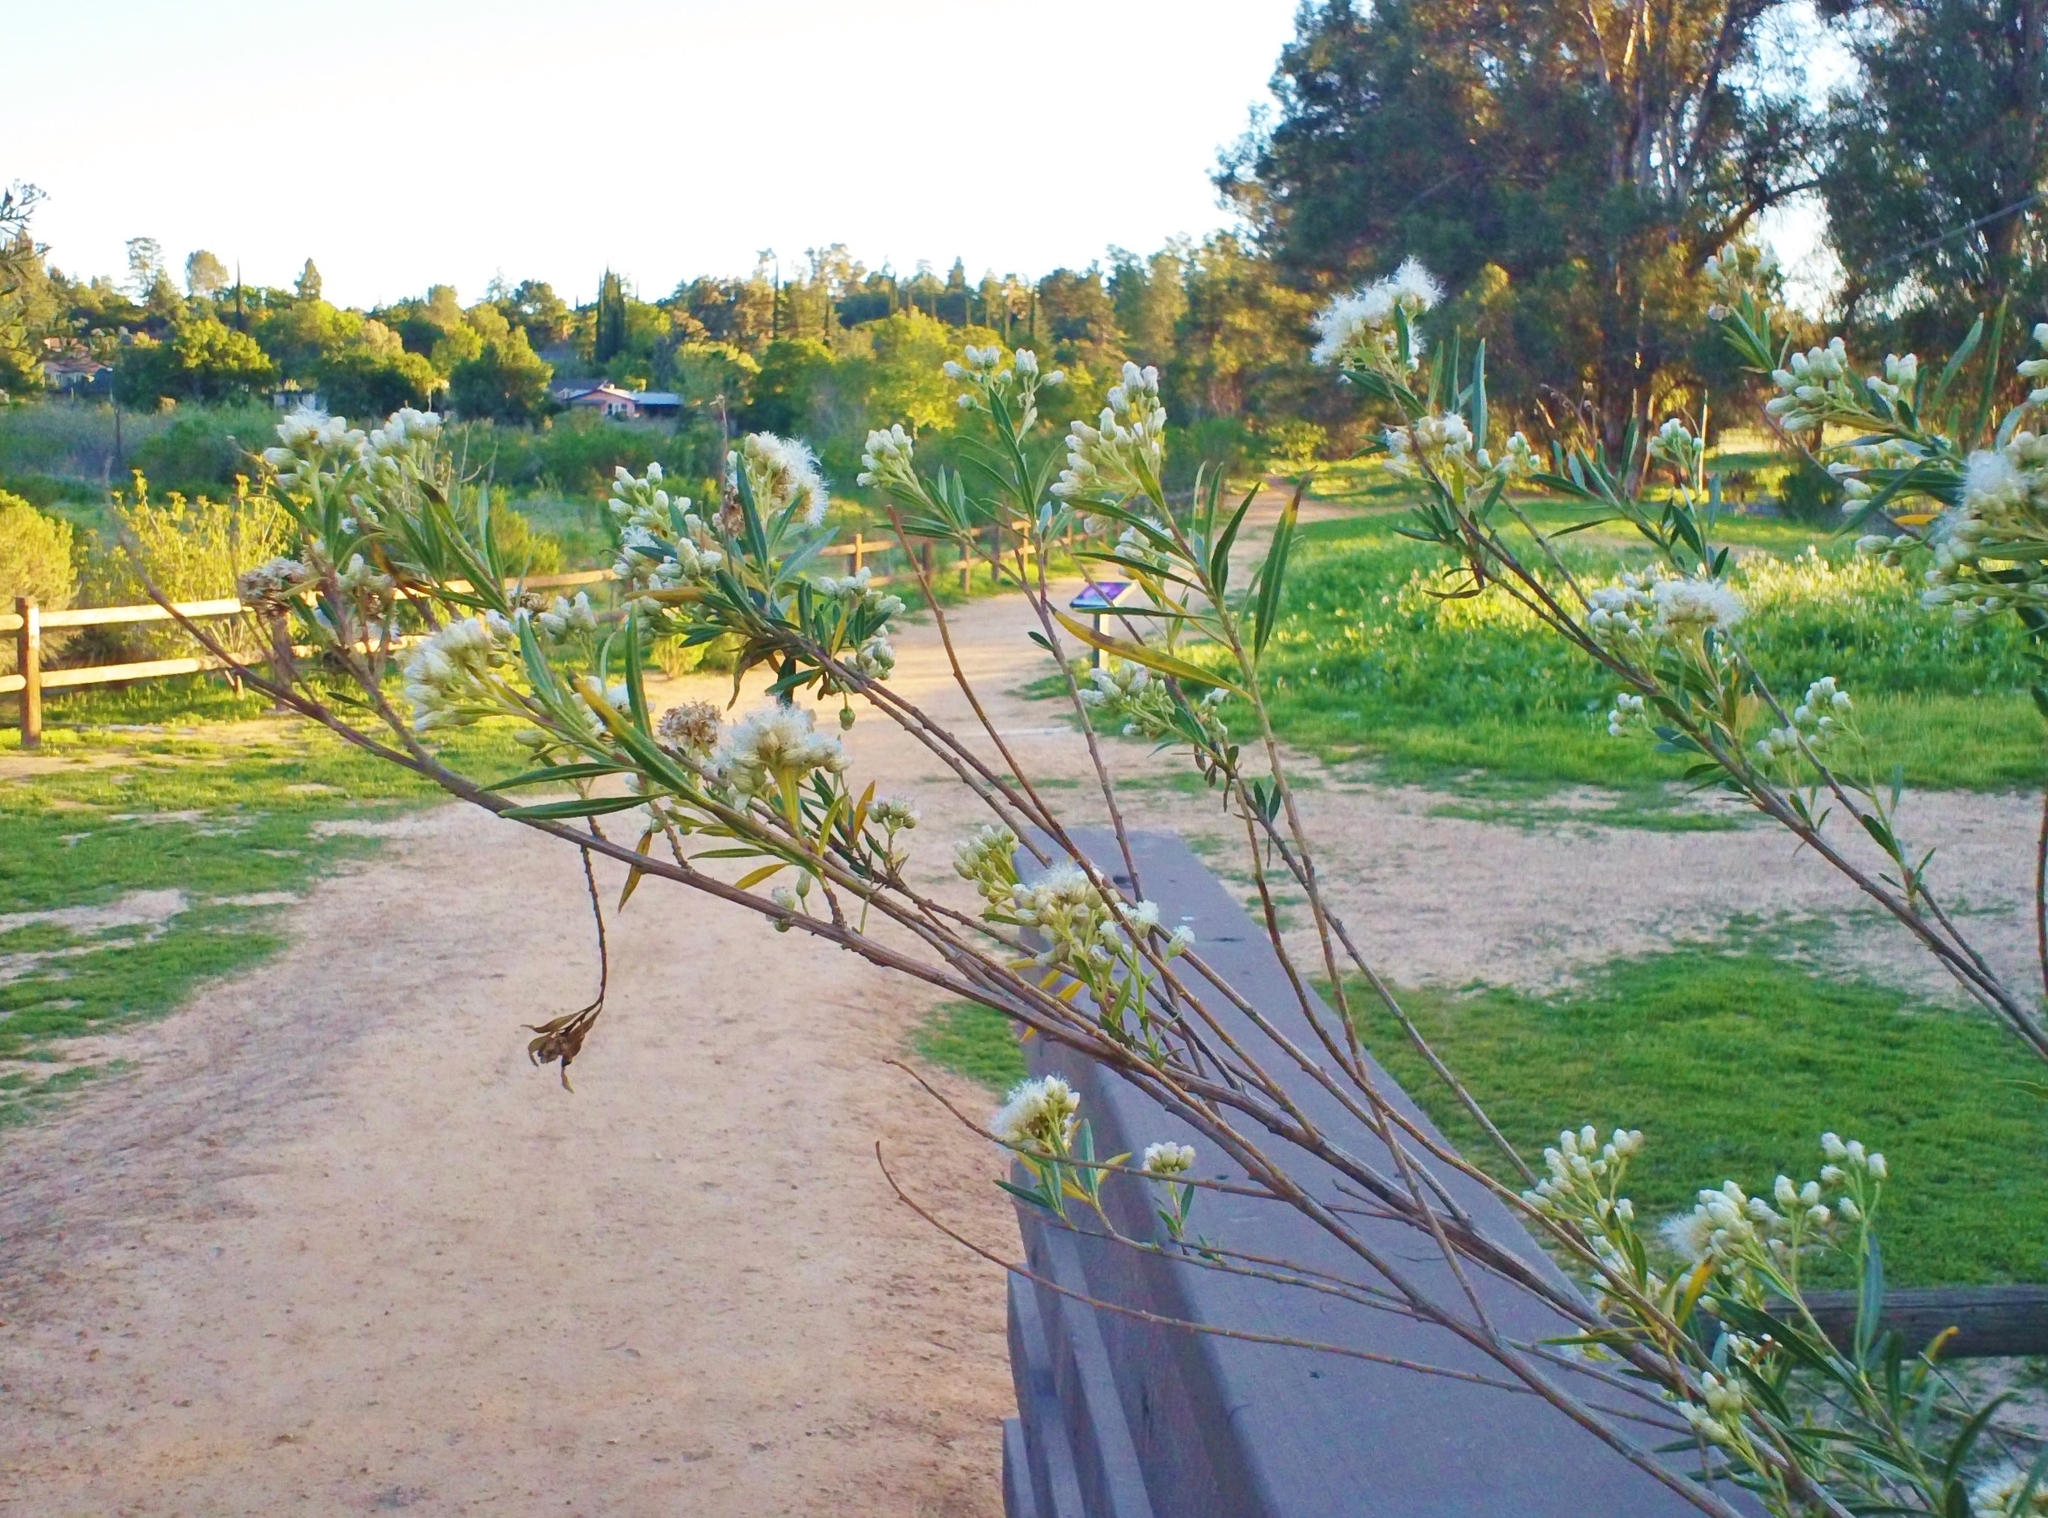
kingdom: Plantae
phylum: Tracheophyta
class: Magnoliopsida
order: Asterales
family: Asteraceae
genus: Baccharis
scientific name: Baccharis salicifolia
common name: Sticky baccharis
